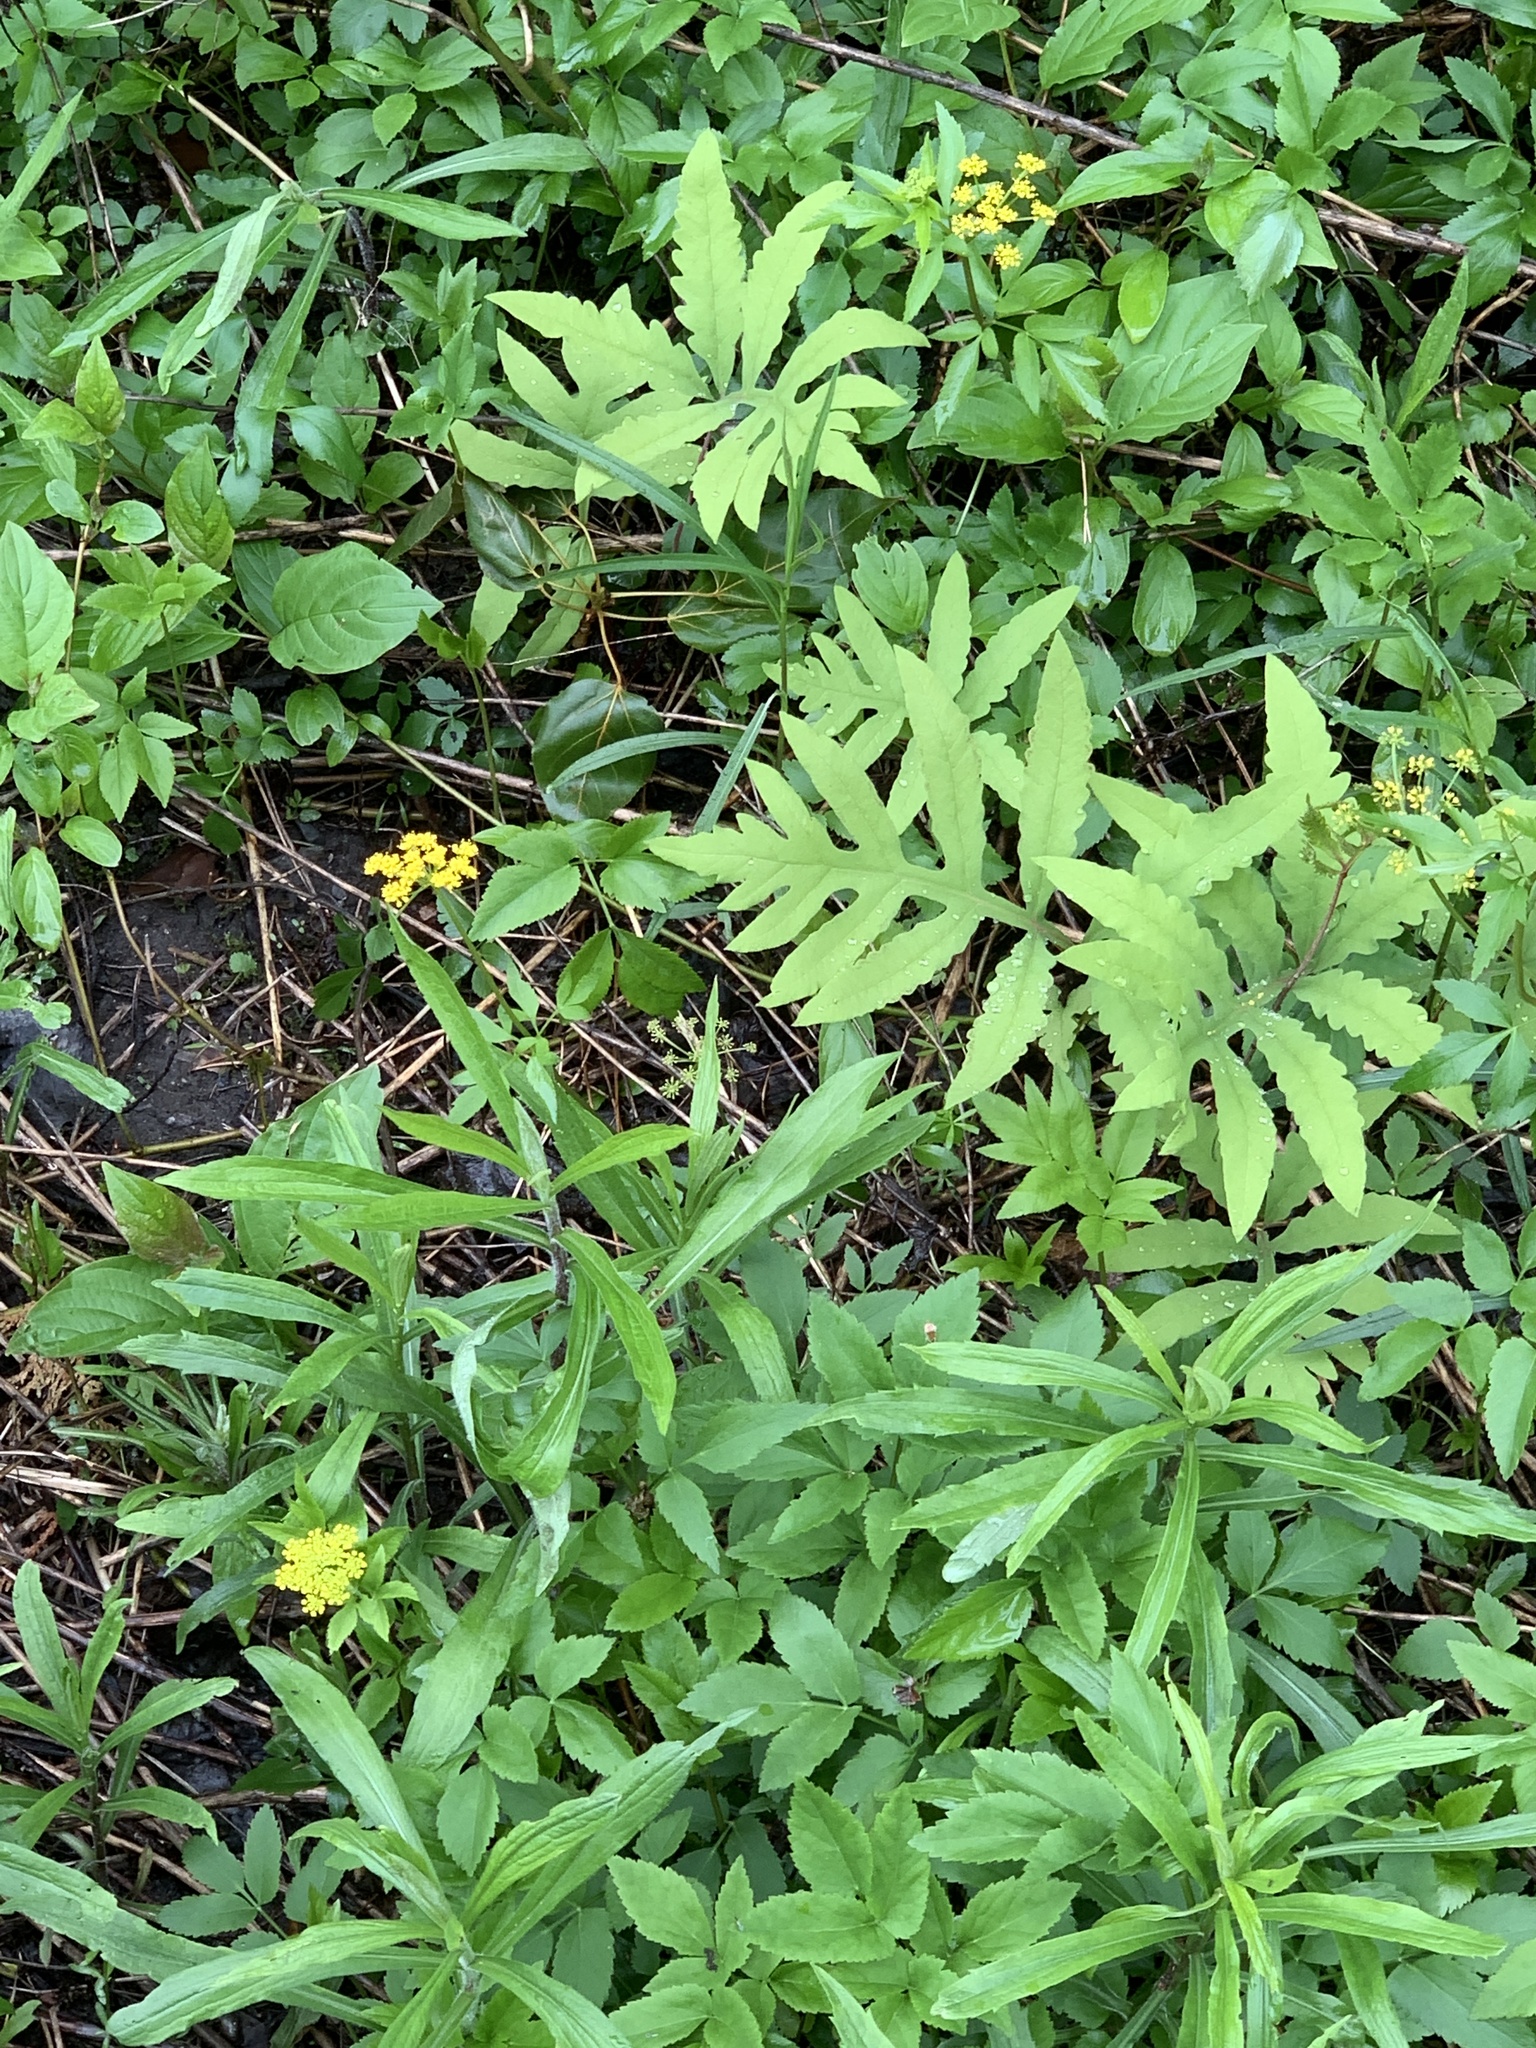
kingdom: Plantae
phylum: Tracheophyta
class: Magnoliopsida
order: Apiales
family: Apiaceae
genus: Zizia
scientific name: Zizia aurea
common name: Golden alexanders
